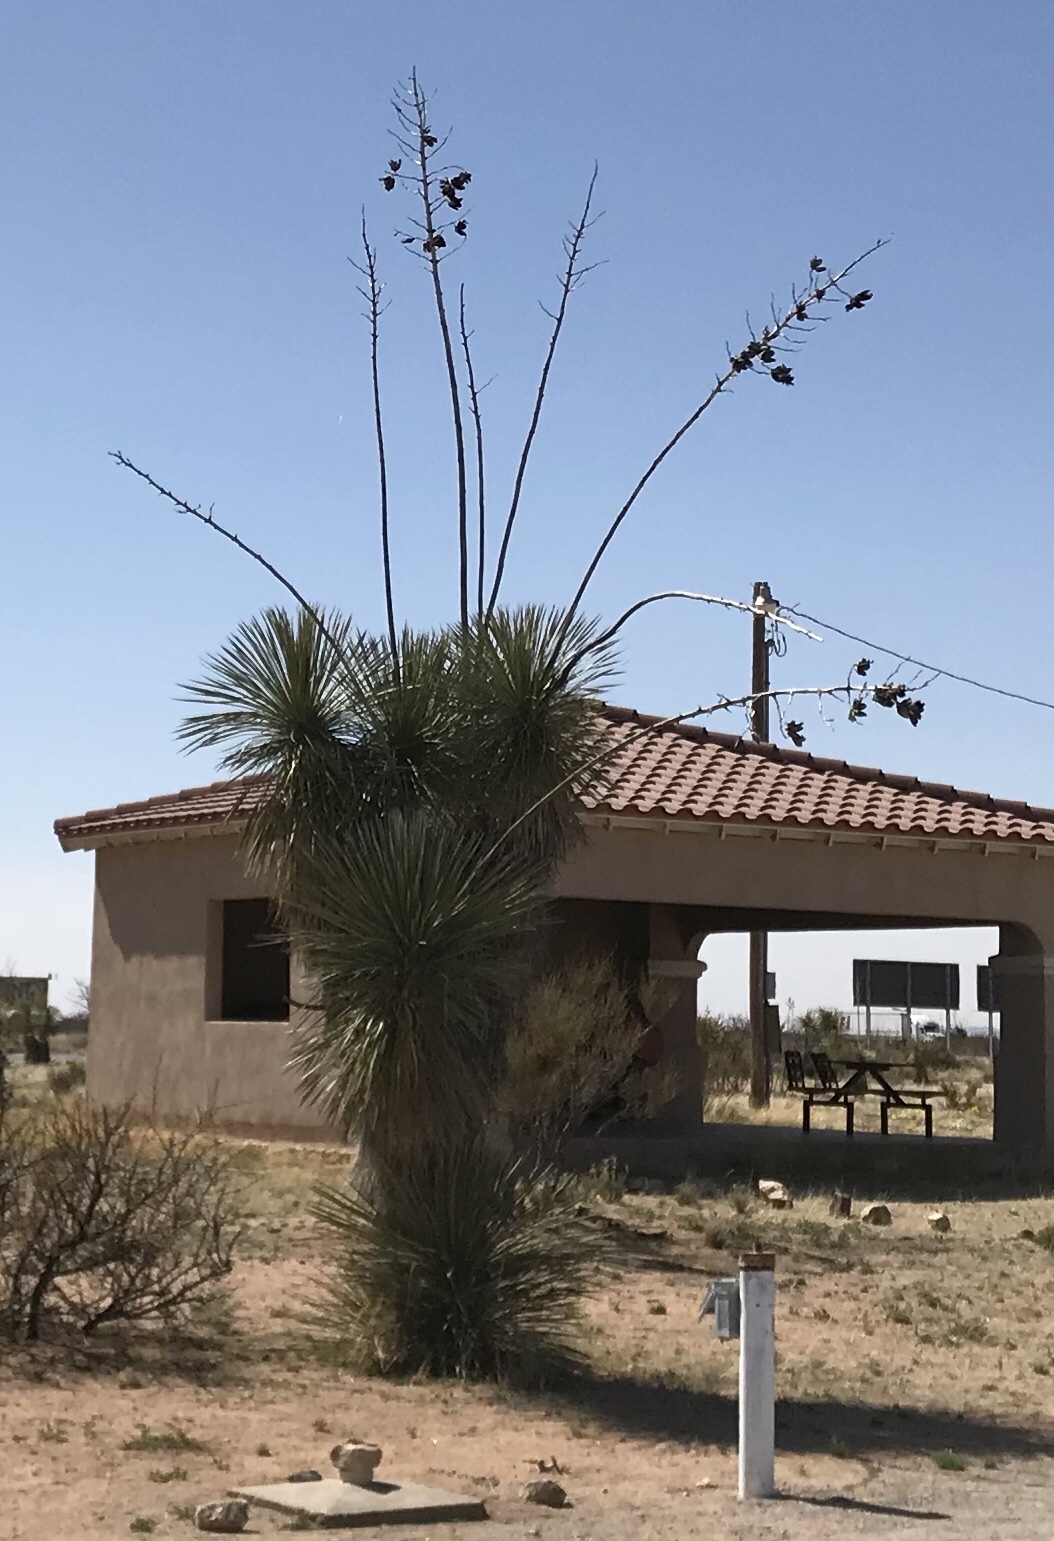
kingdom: Plantae
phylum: Tracheophyta
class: Liliopsida
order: Asparagales
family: Asparagaceae
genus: Yucca
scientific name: Yucca elata
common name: Palmella
